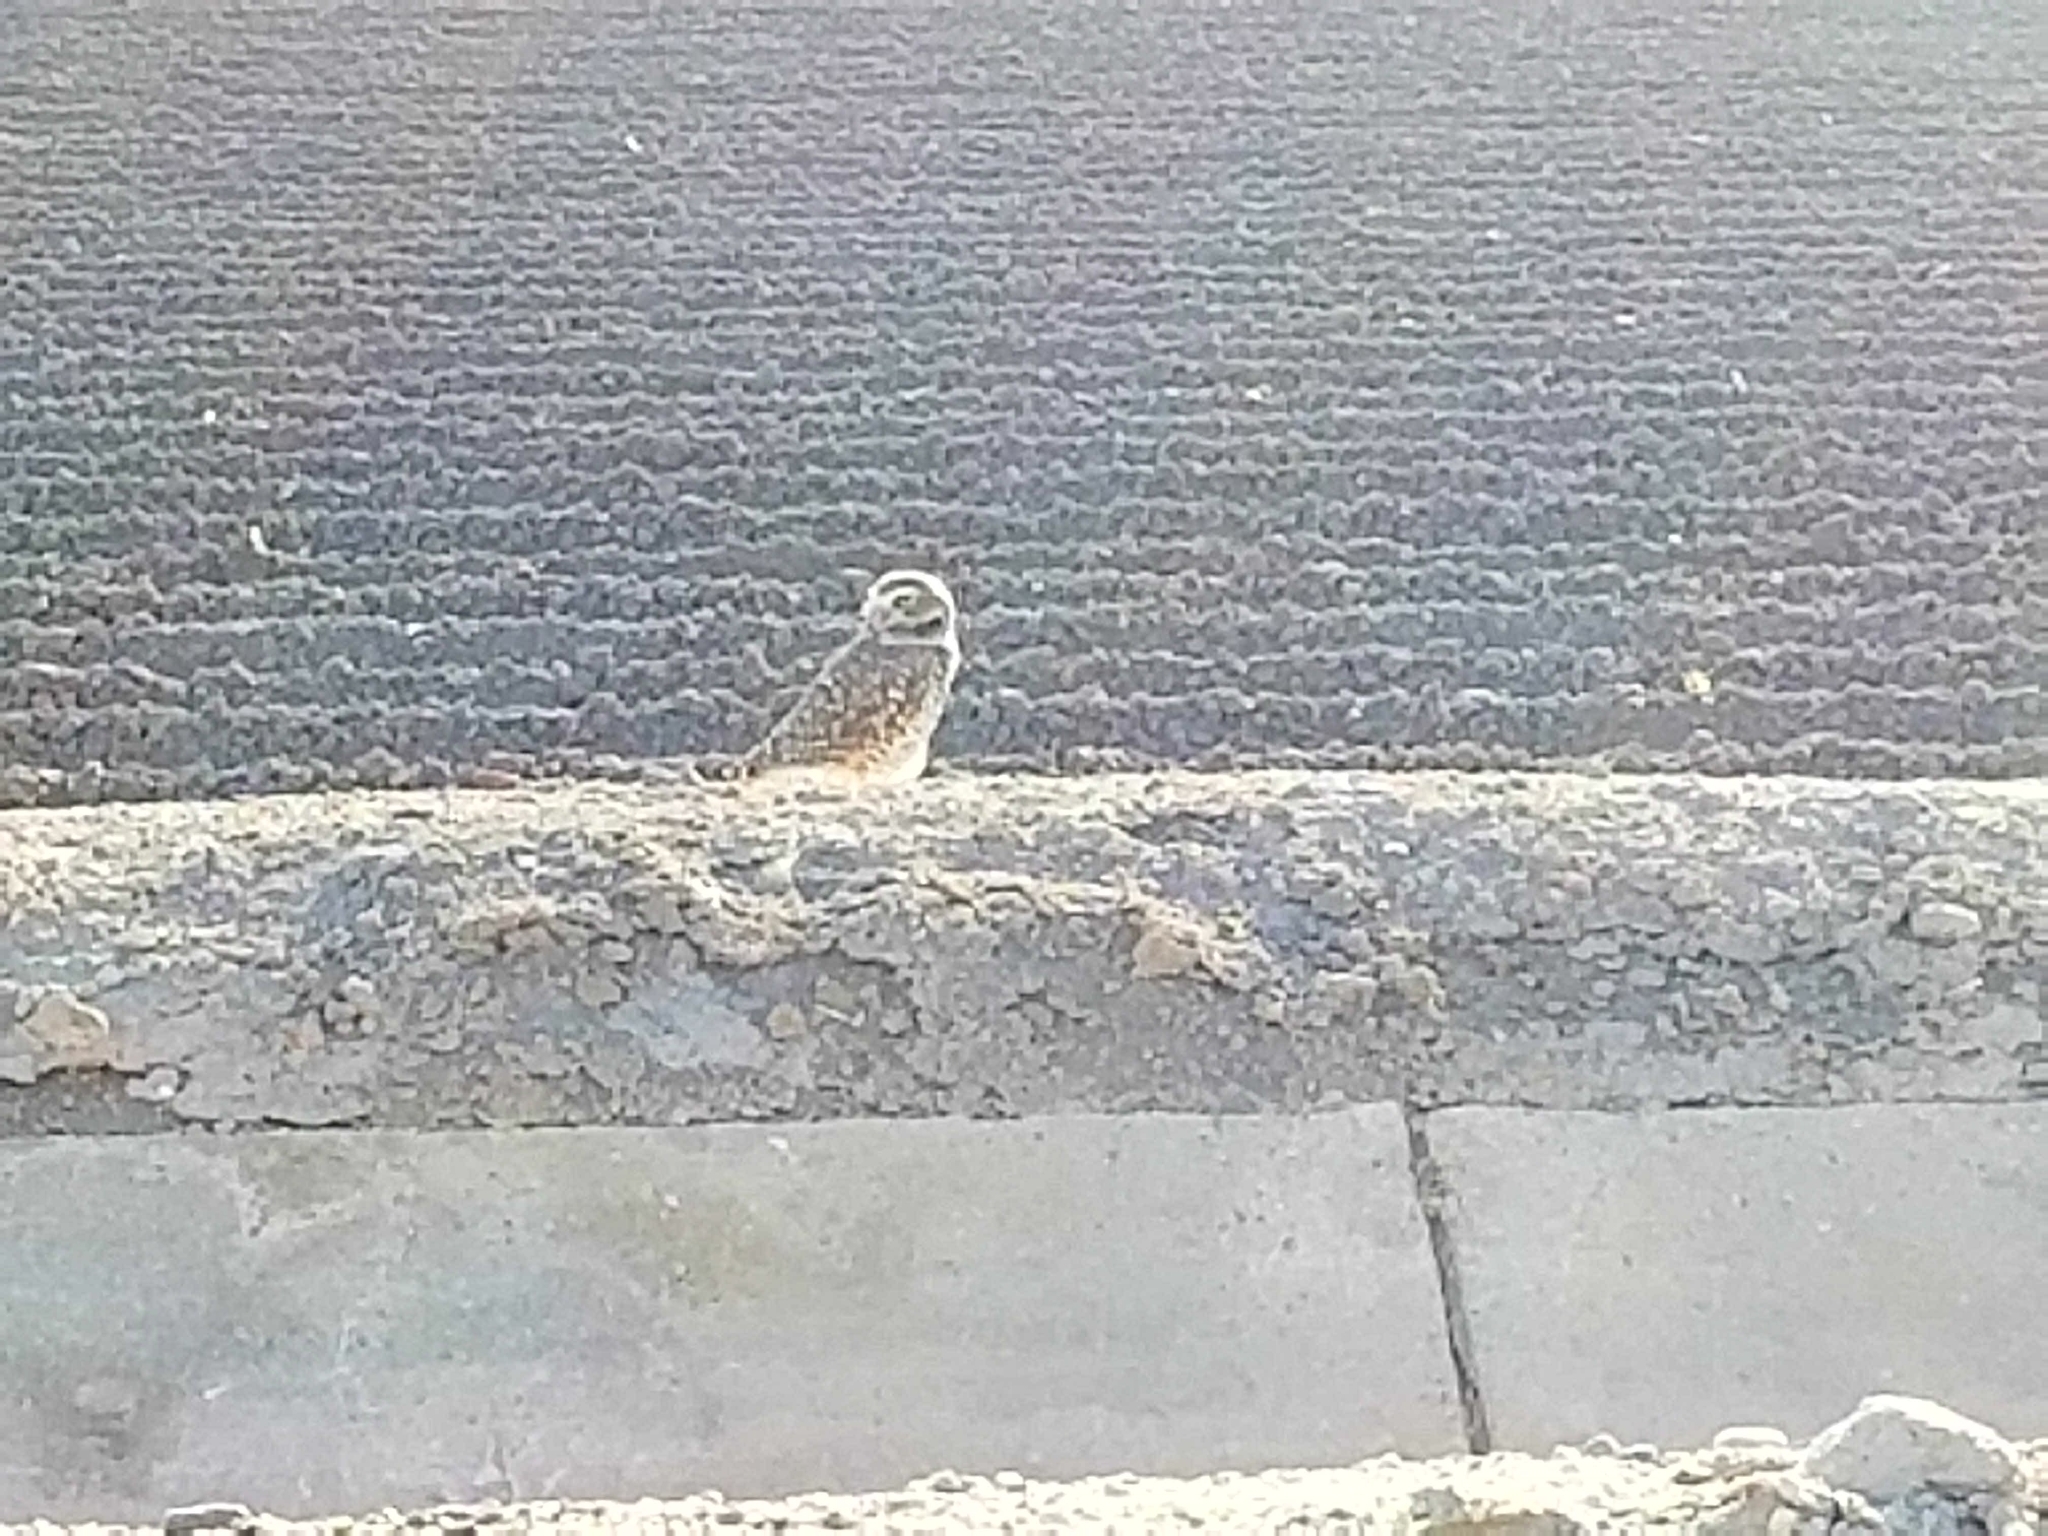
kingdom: Animalia
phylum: Chordata
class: Aves
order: Strigiformes
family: Strigidae
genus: Athene
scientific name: Athene cunicularia
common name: Burrowing owl
